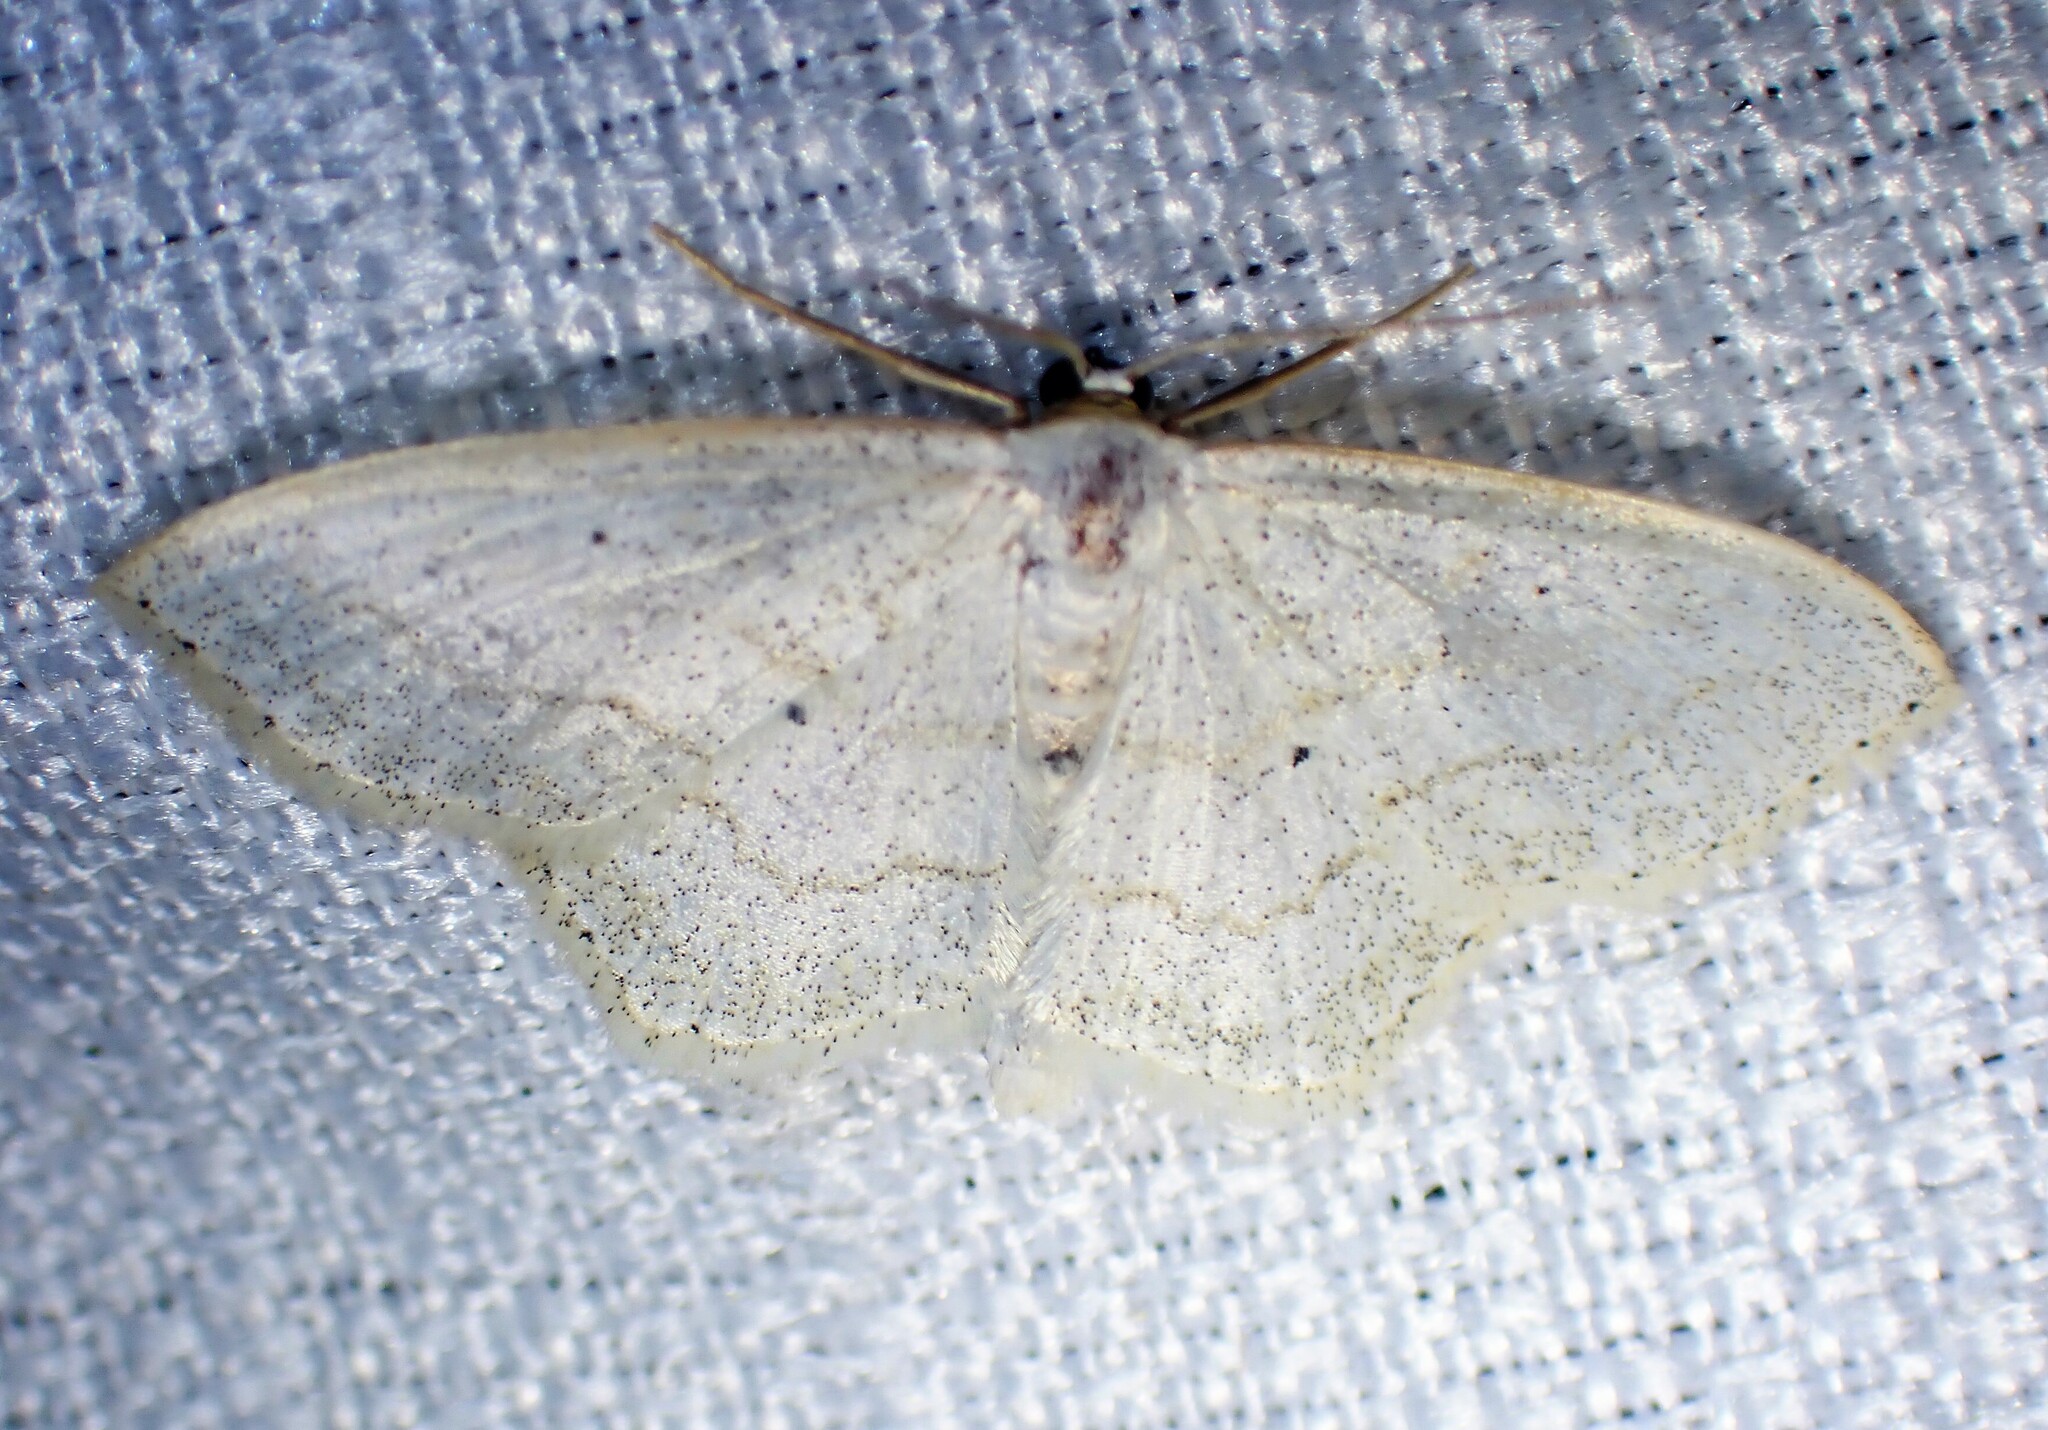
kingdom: Animalia
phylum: Arthropoda
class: Insecta
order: Lepidoptera
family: Geometridae
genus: Scopula
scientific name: Scopula limboundata
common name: Large lace border
